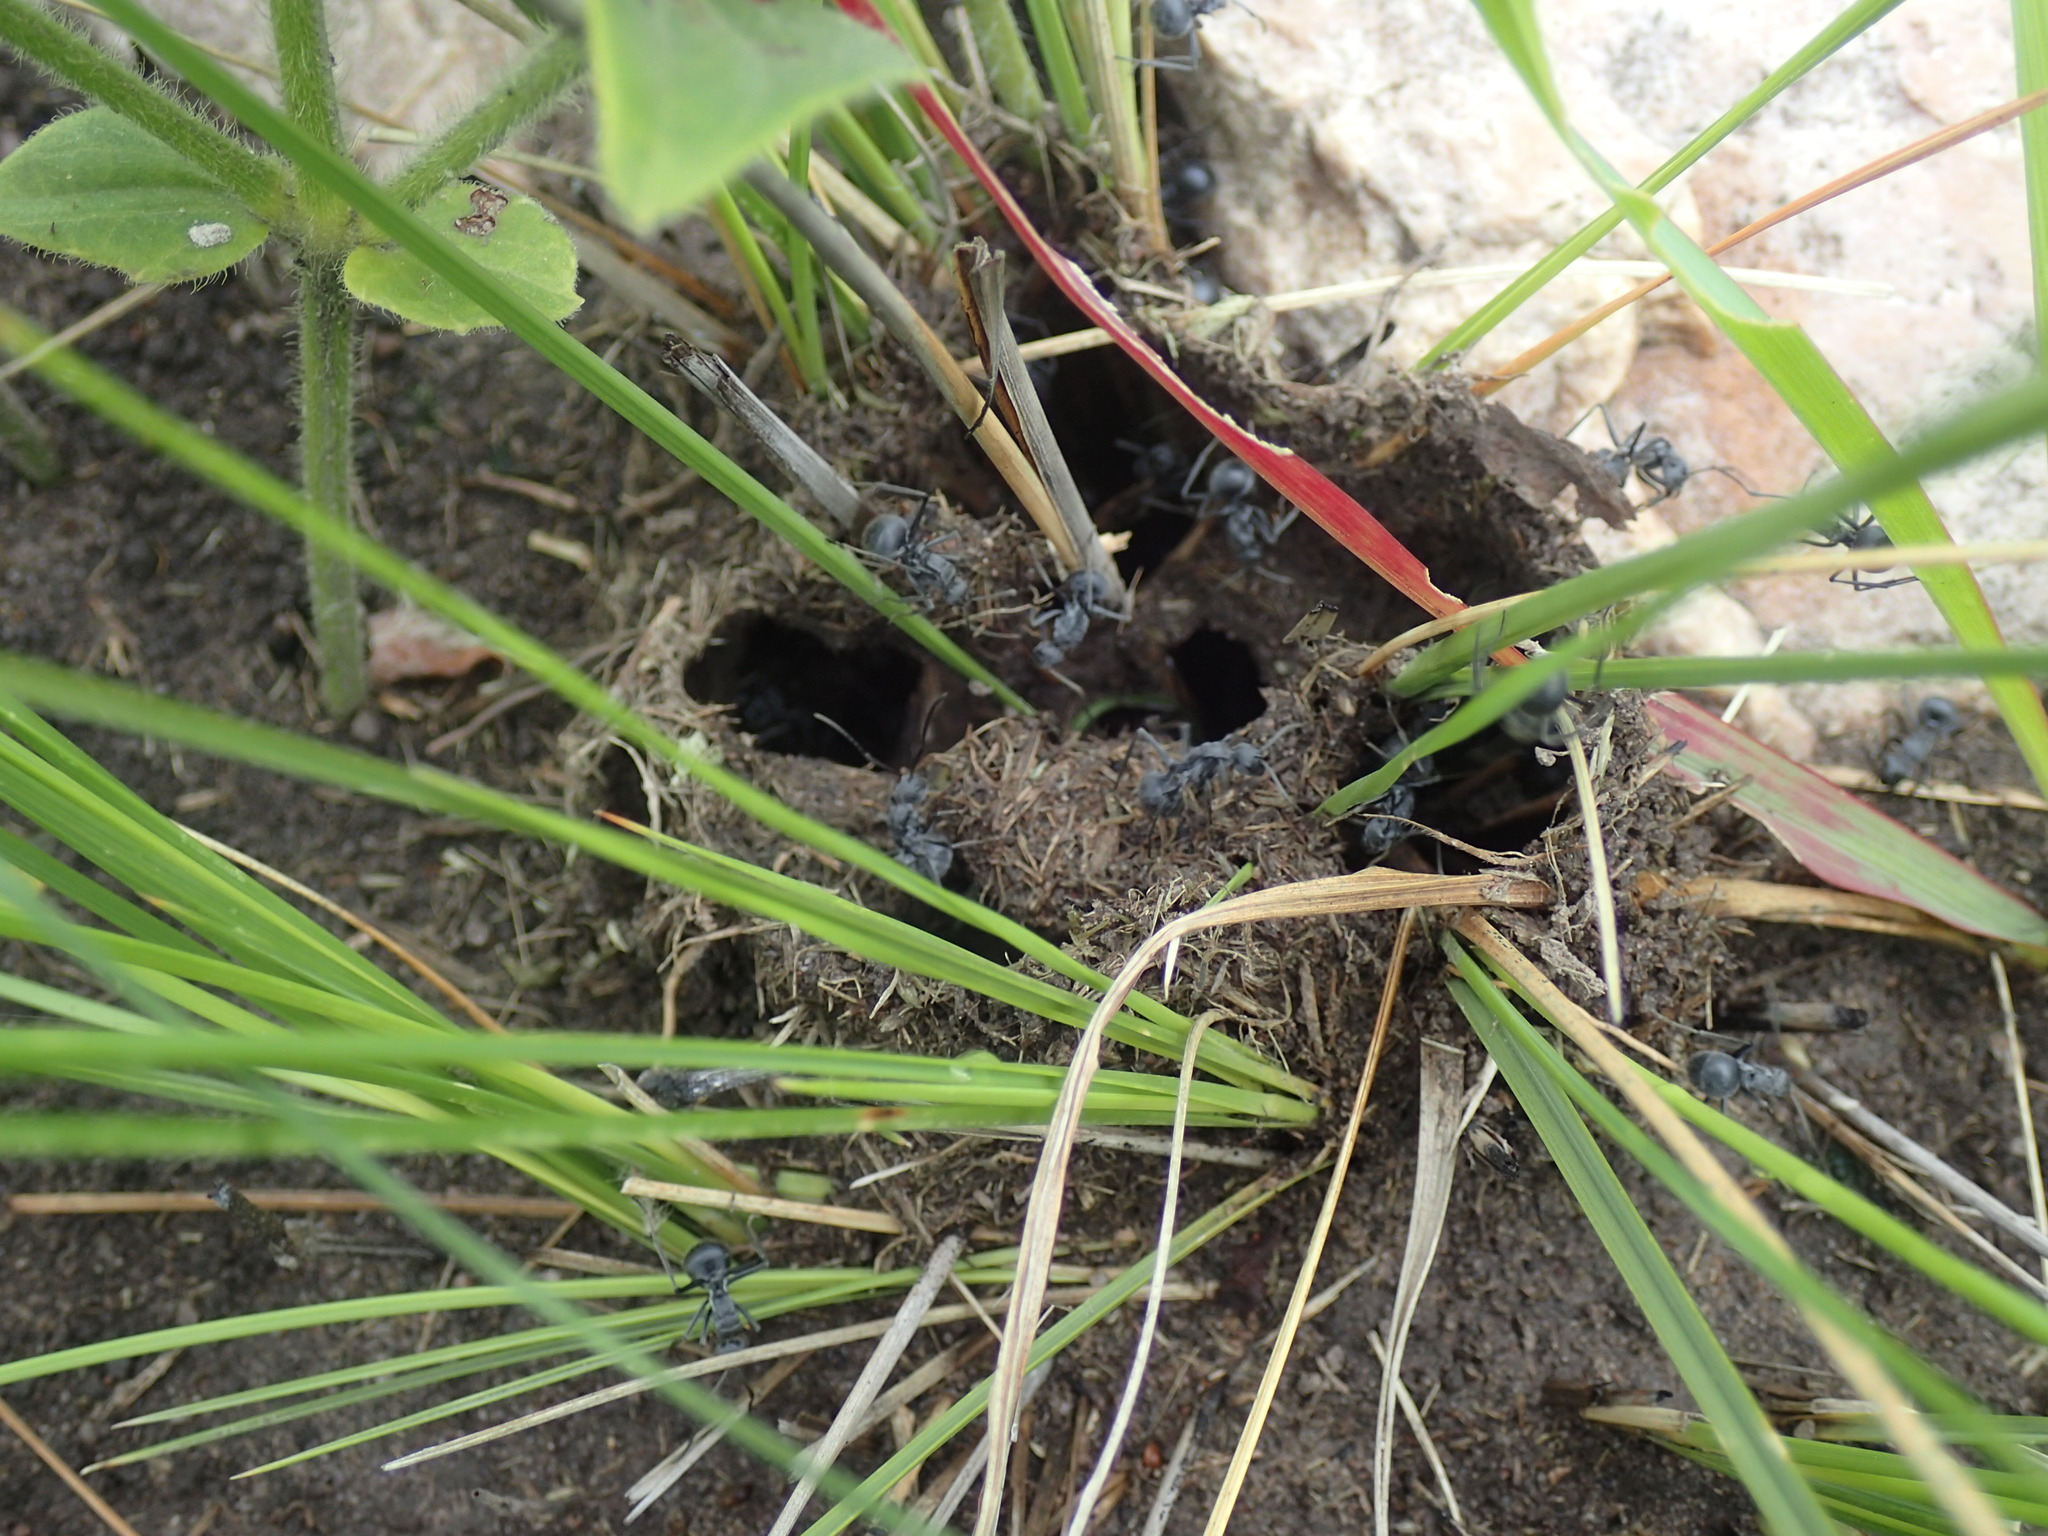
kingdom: Animalia
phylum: Arthropoda
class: Insecta
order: Hymenoptera
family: Formicidae
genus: Polyrhachis
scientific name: Polyrhachis schistacea
